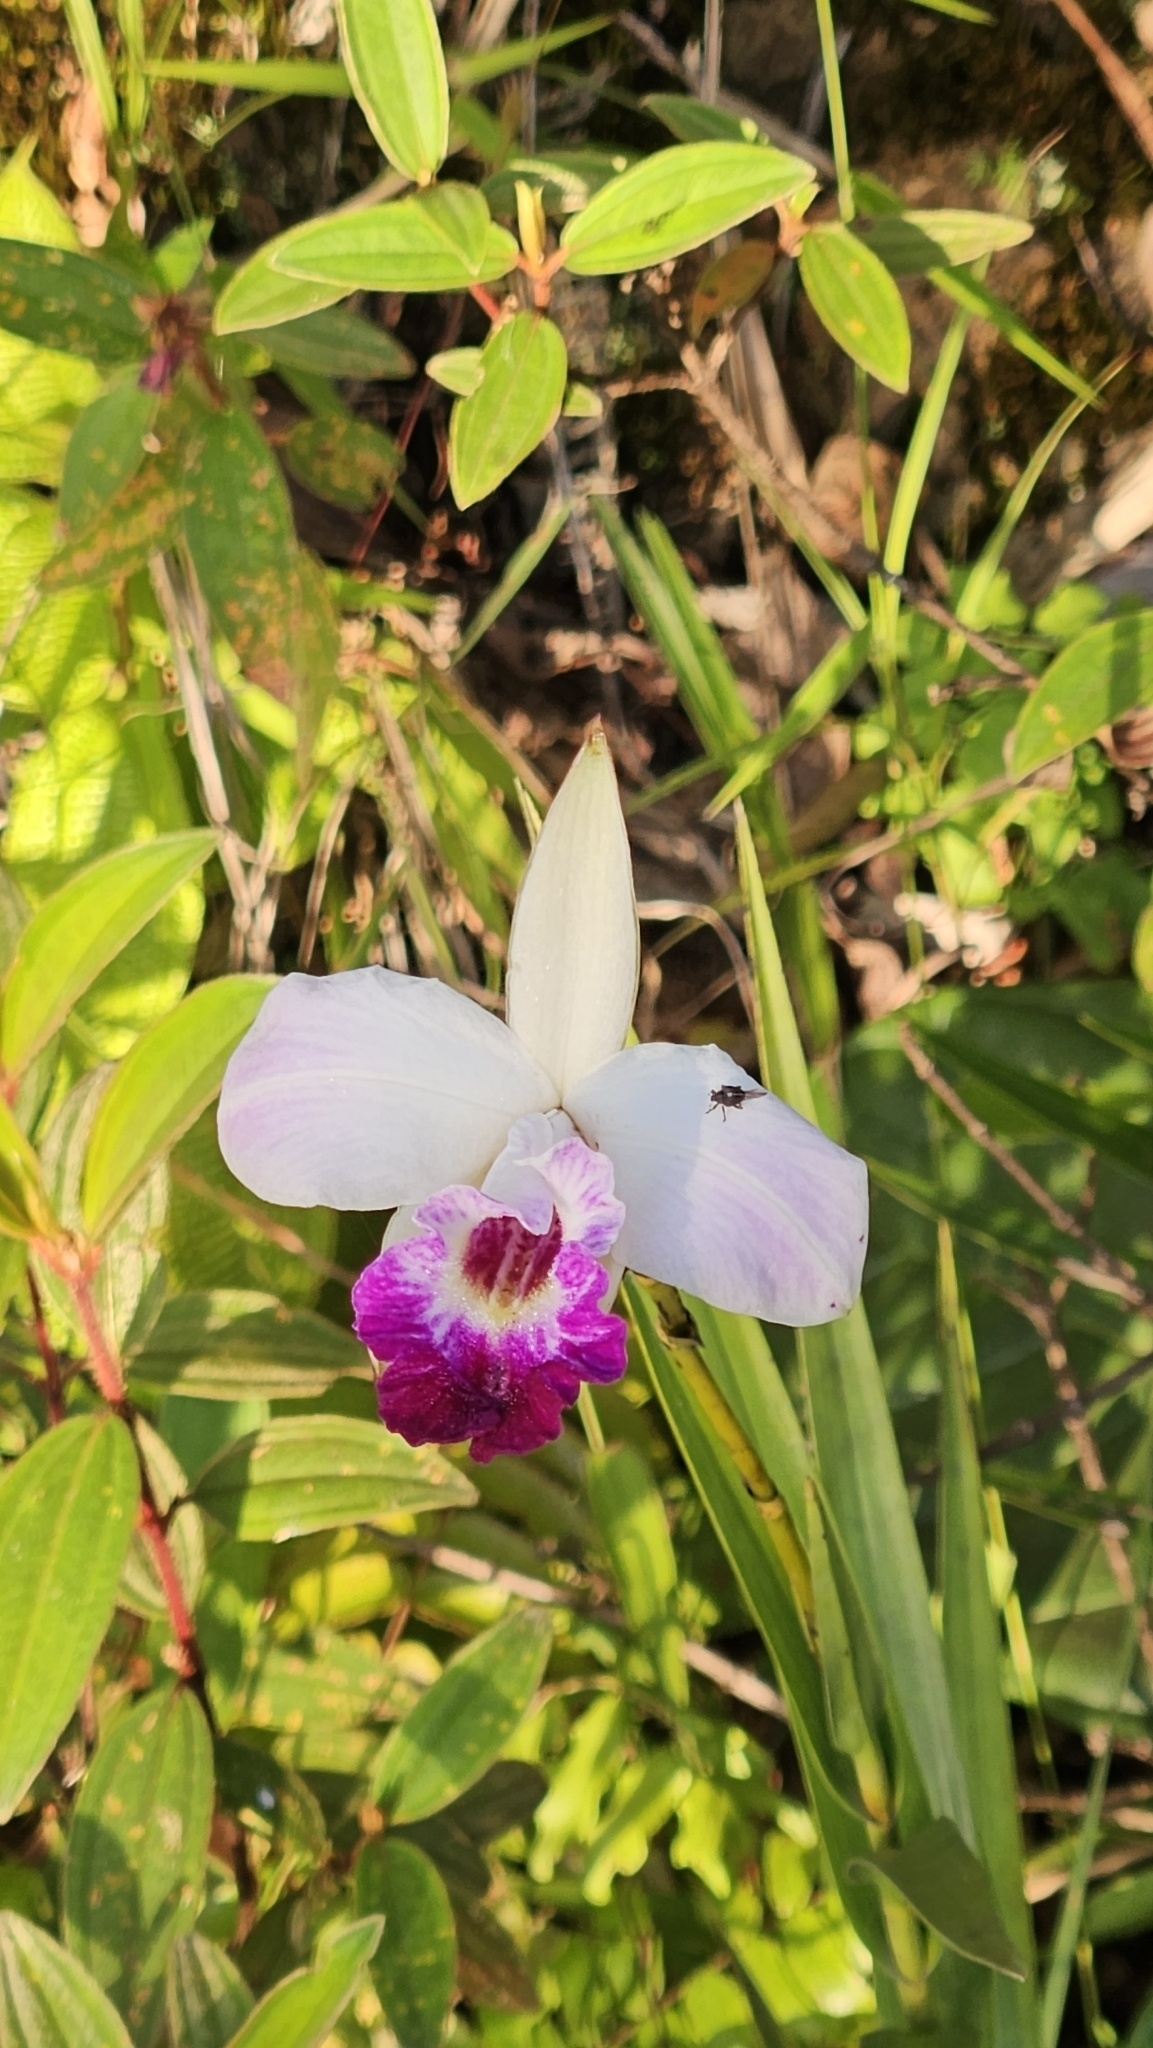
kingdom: Plantae
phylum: Tracheophyta
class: Liliopsida
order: Asparagales
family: Orchidaceae
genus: Arundina
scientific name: Arundina graminifolia
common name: Bamboo orchid
